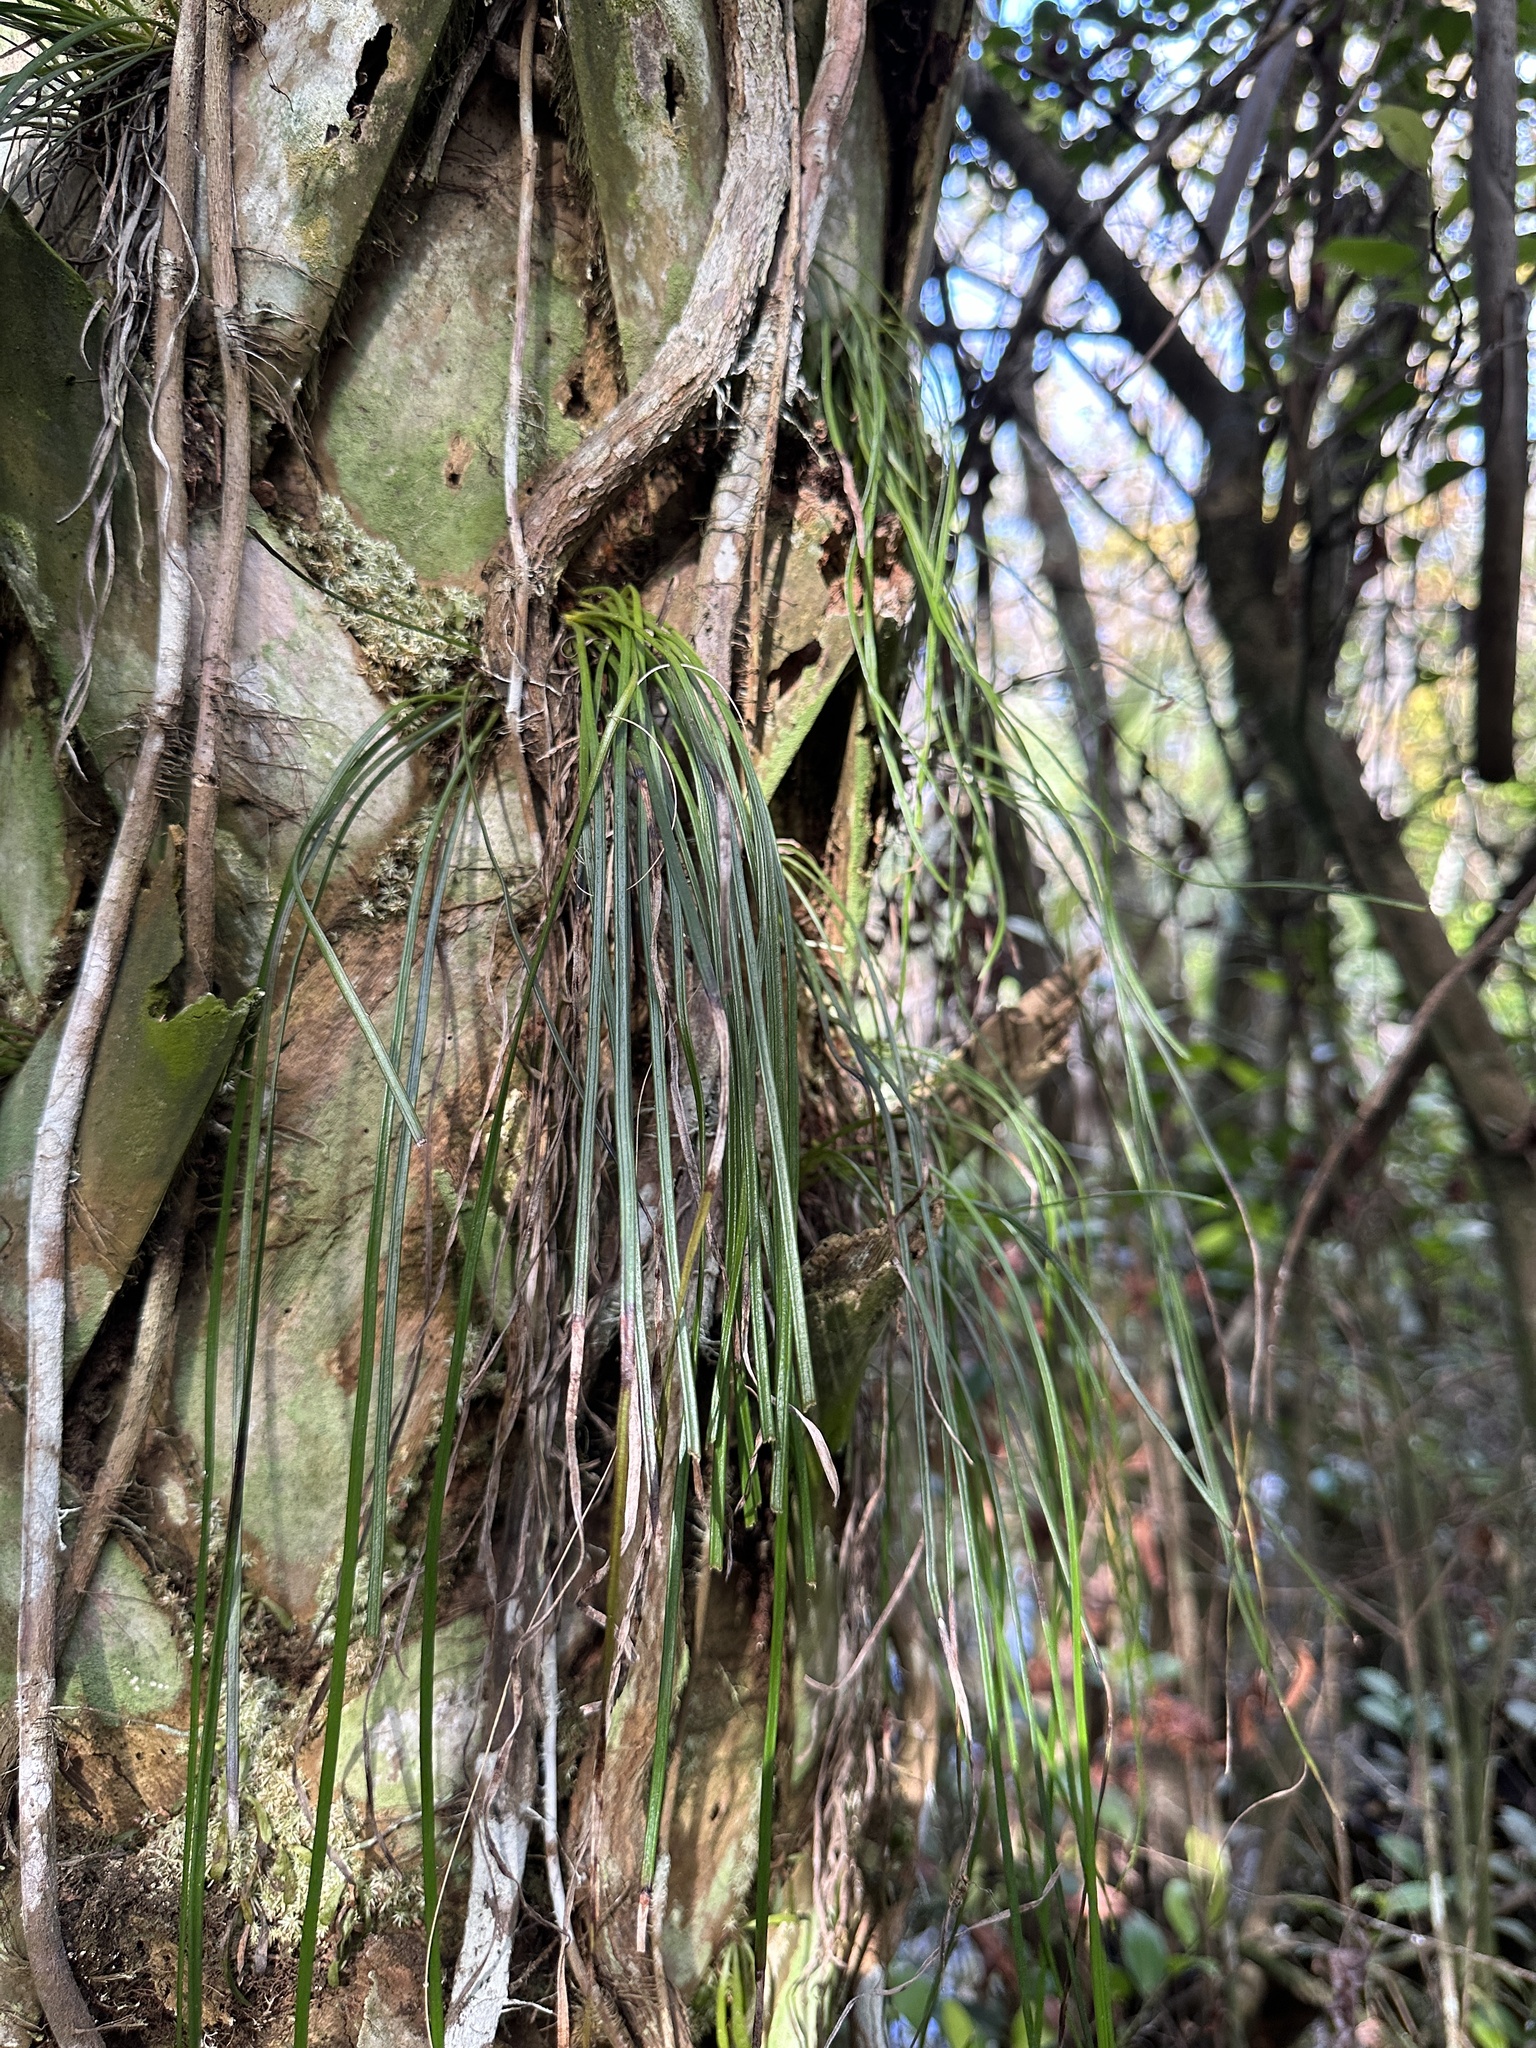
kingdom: Plantae
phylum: Tracheophyta
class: Polypodiopsida
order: Polypodiales
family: Pteridaceae
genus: Vittaria
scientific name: Vittaria lineata
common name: Shoestring fern
